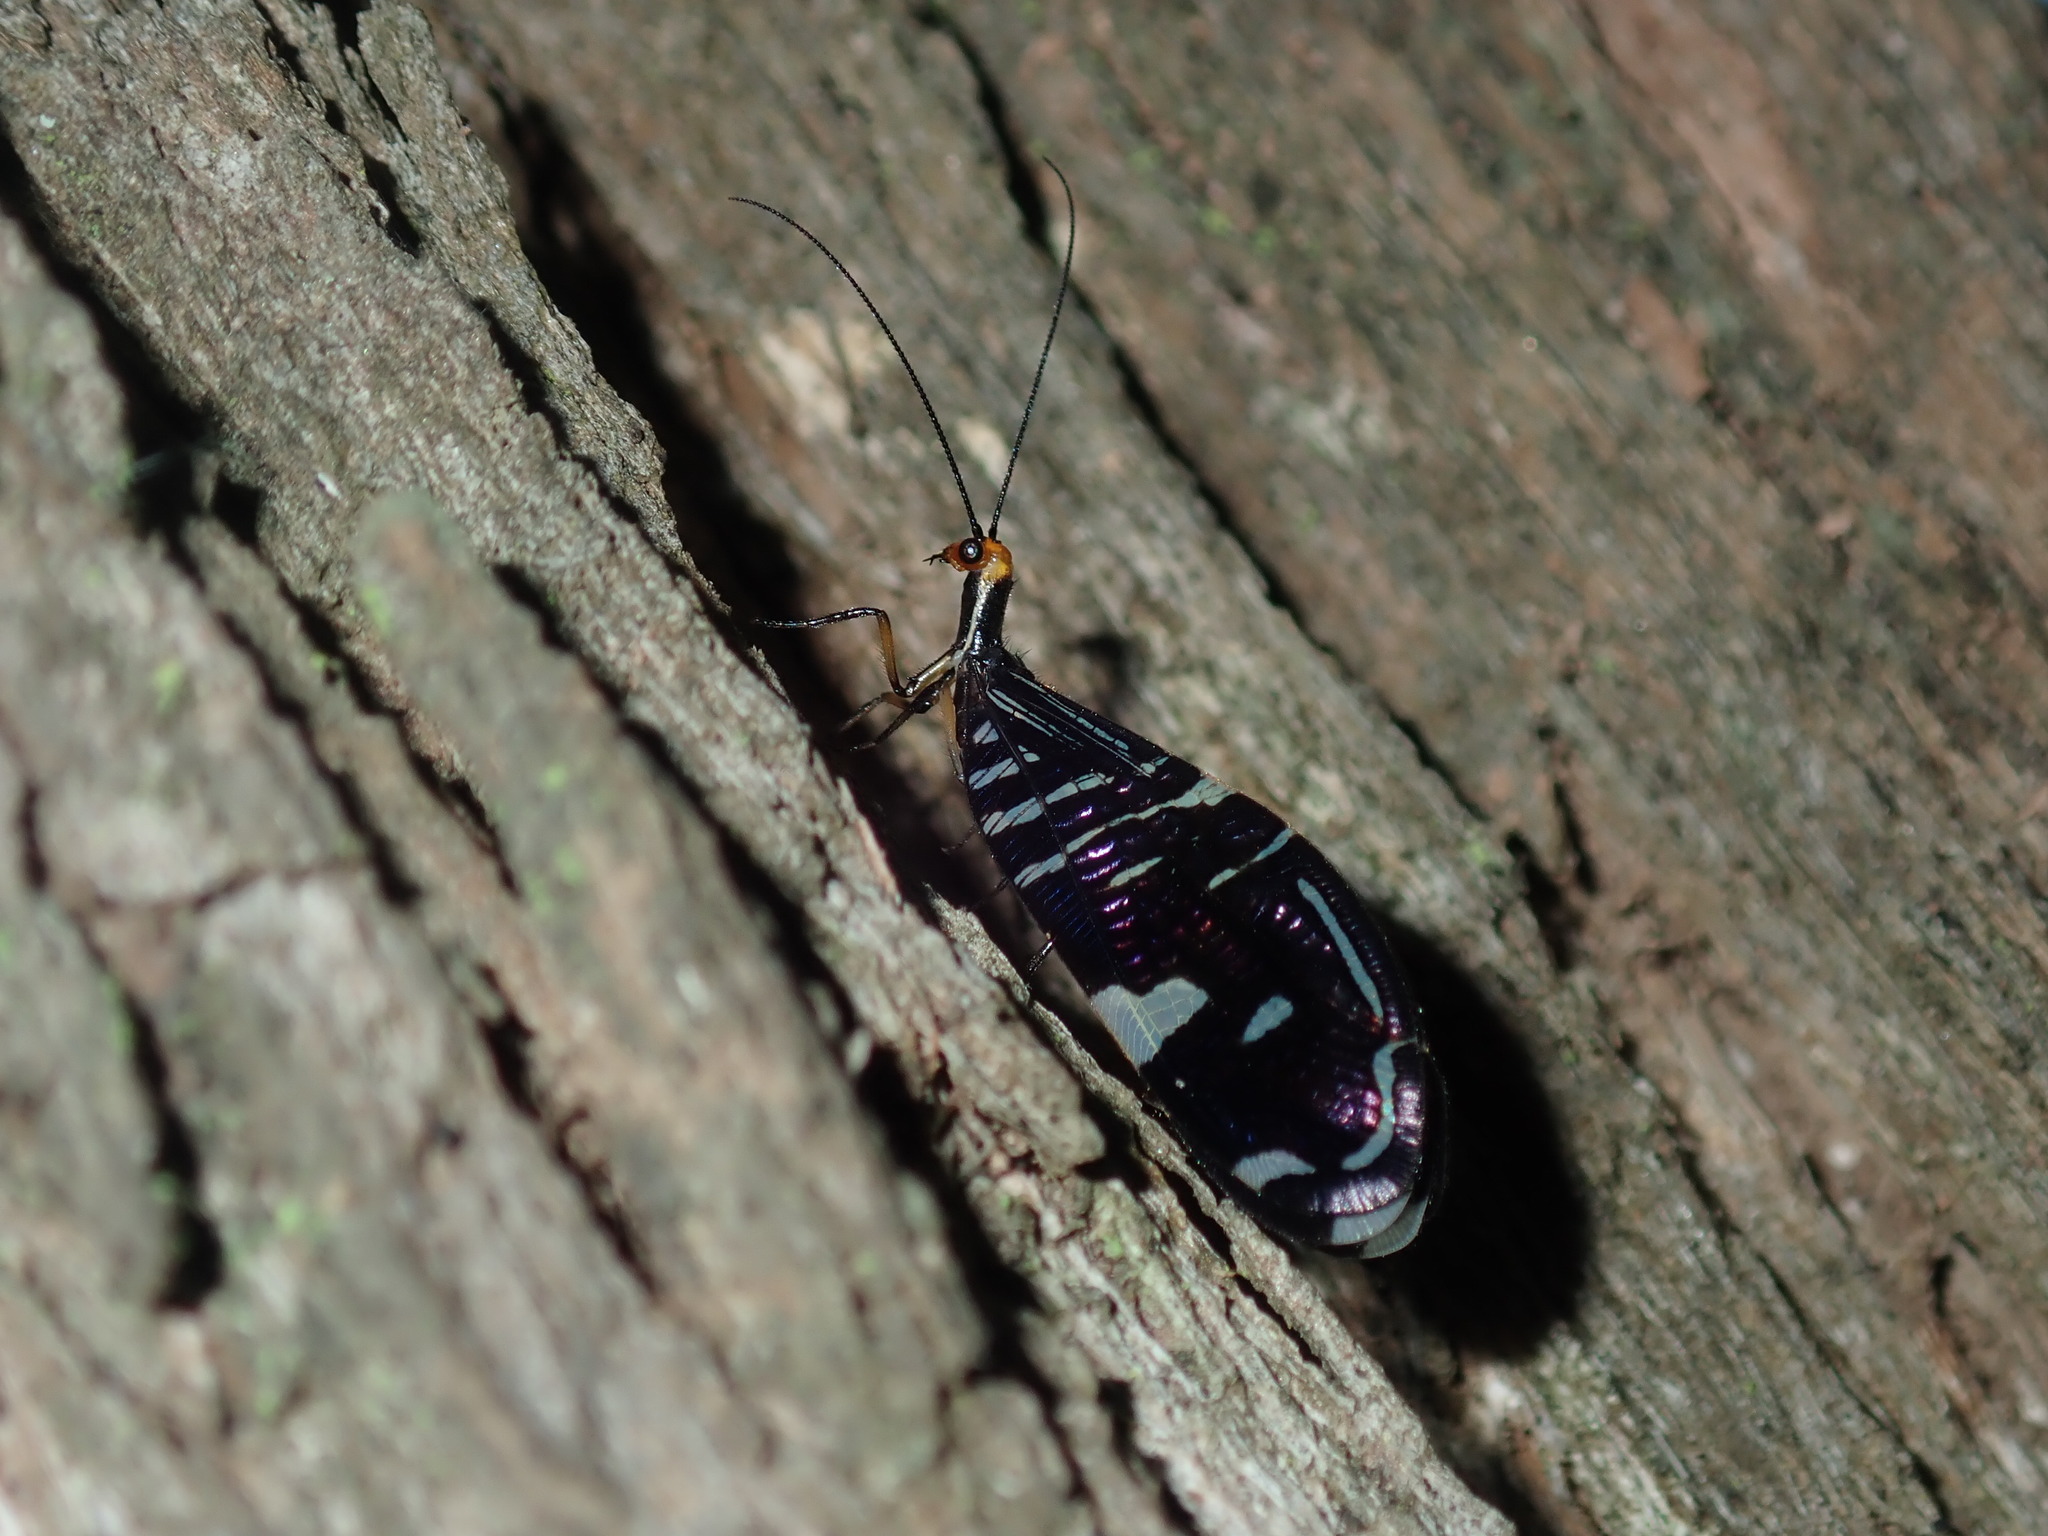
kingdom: Animalia
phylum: Arthropoda
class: Insecta
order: Neuroptera
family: Osmylidae
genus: Porismus
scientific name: Porismus strigatus
